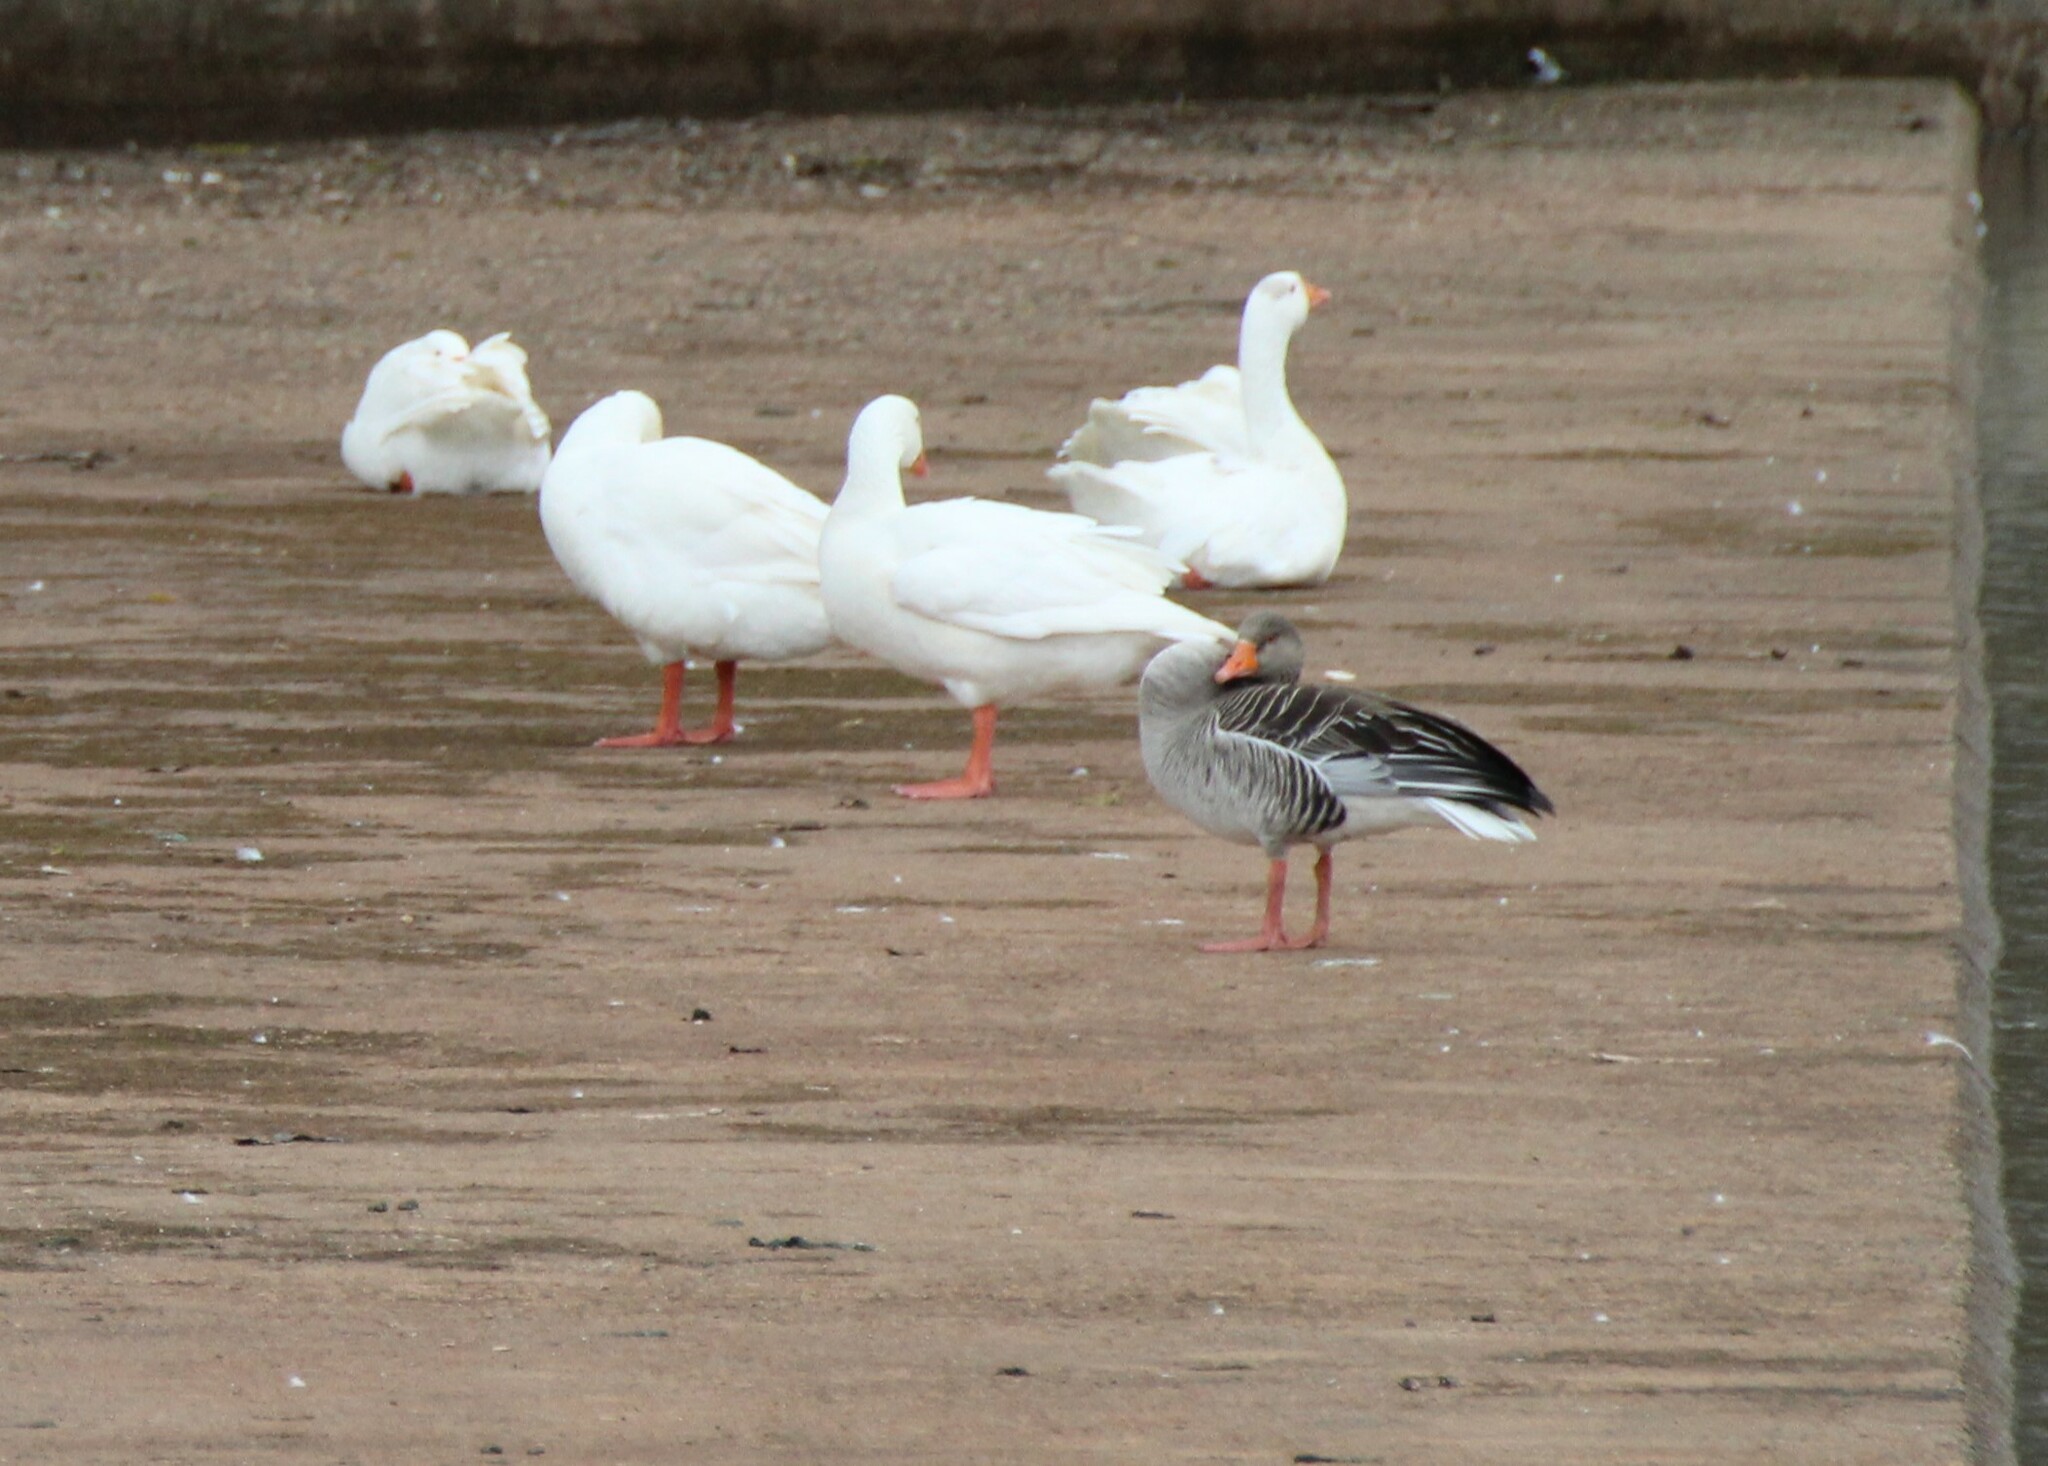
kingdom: Animalia
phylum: Chordata
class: Aves
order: Anseriformes
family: Anatidae
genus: Anser
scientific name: Anser anser
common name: Greylag goose
